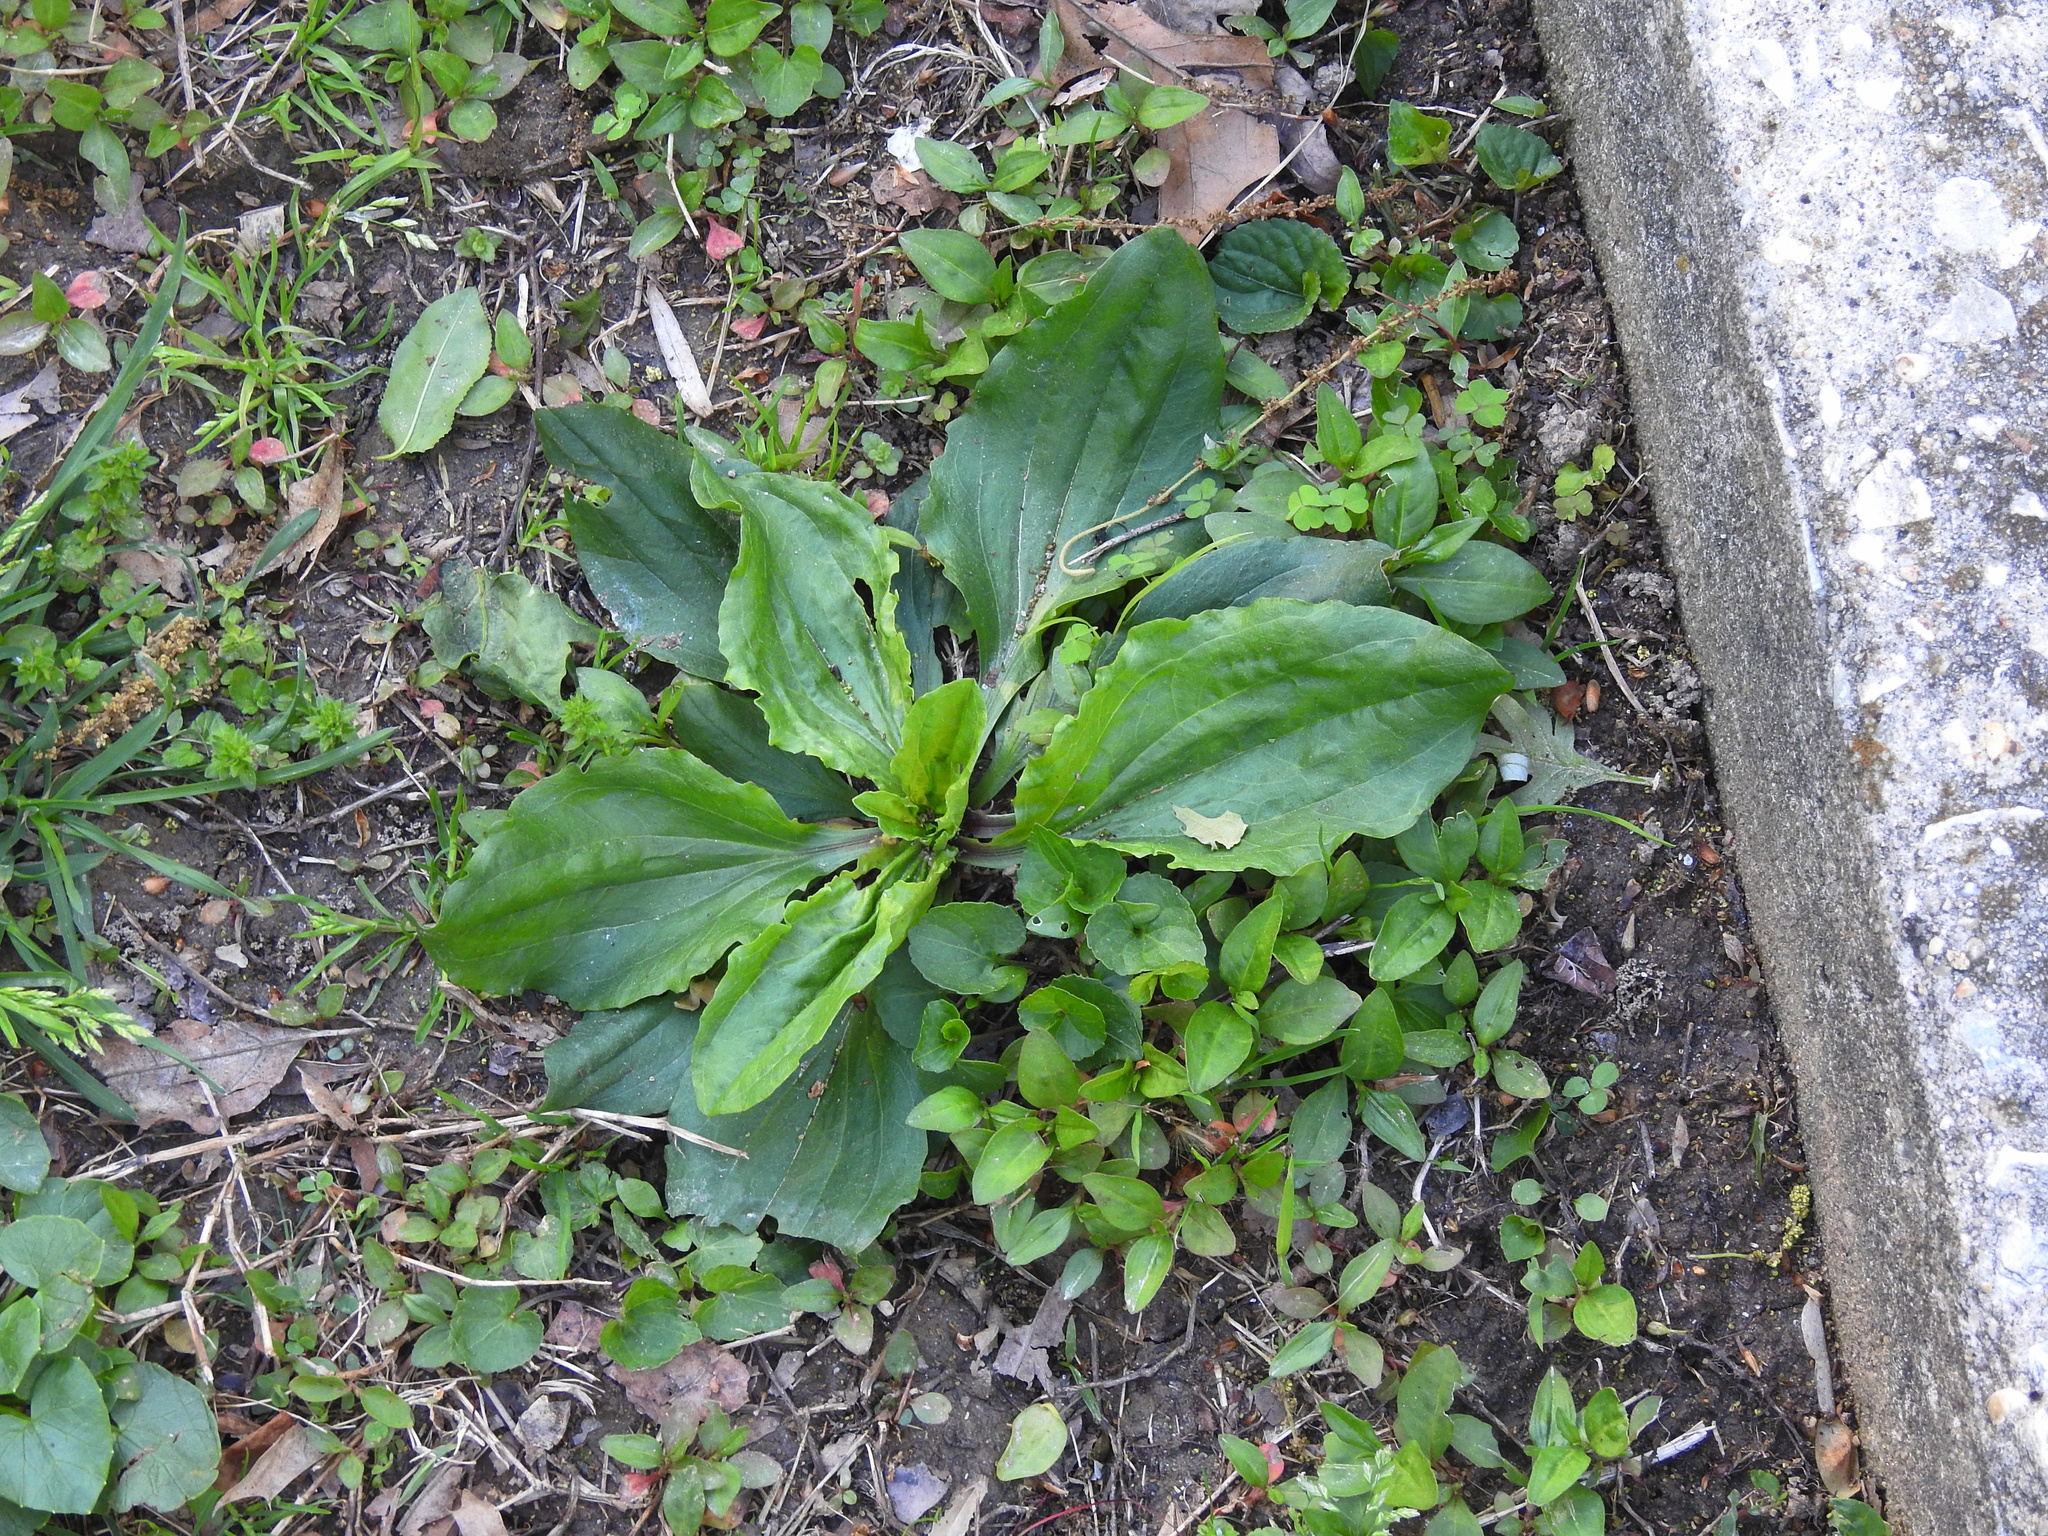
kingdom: Plantae
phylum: Tracheophyta
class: Magnoliopsida
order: Lamiales
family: Plantaginaceae
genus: Plantago
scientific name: Plantago rugelii
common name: American plantain
